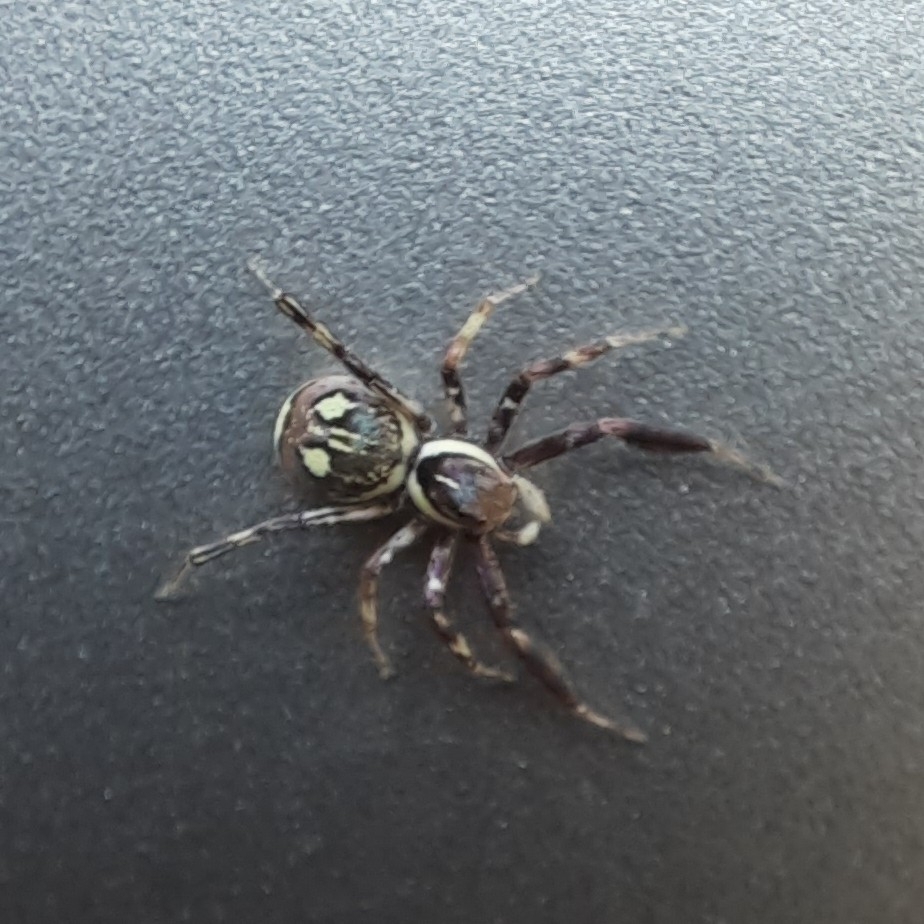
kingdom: Animalia
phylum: Arthropoda
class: Arachnida
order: Araneae
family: Salticidae
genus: Brettus
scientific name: Brettus cingulatus
